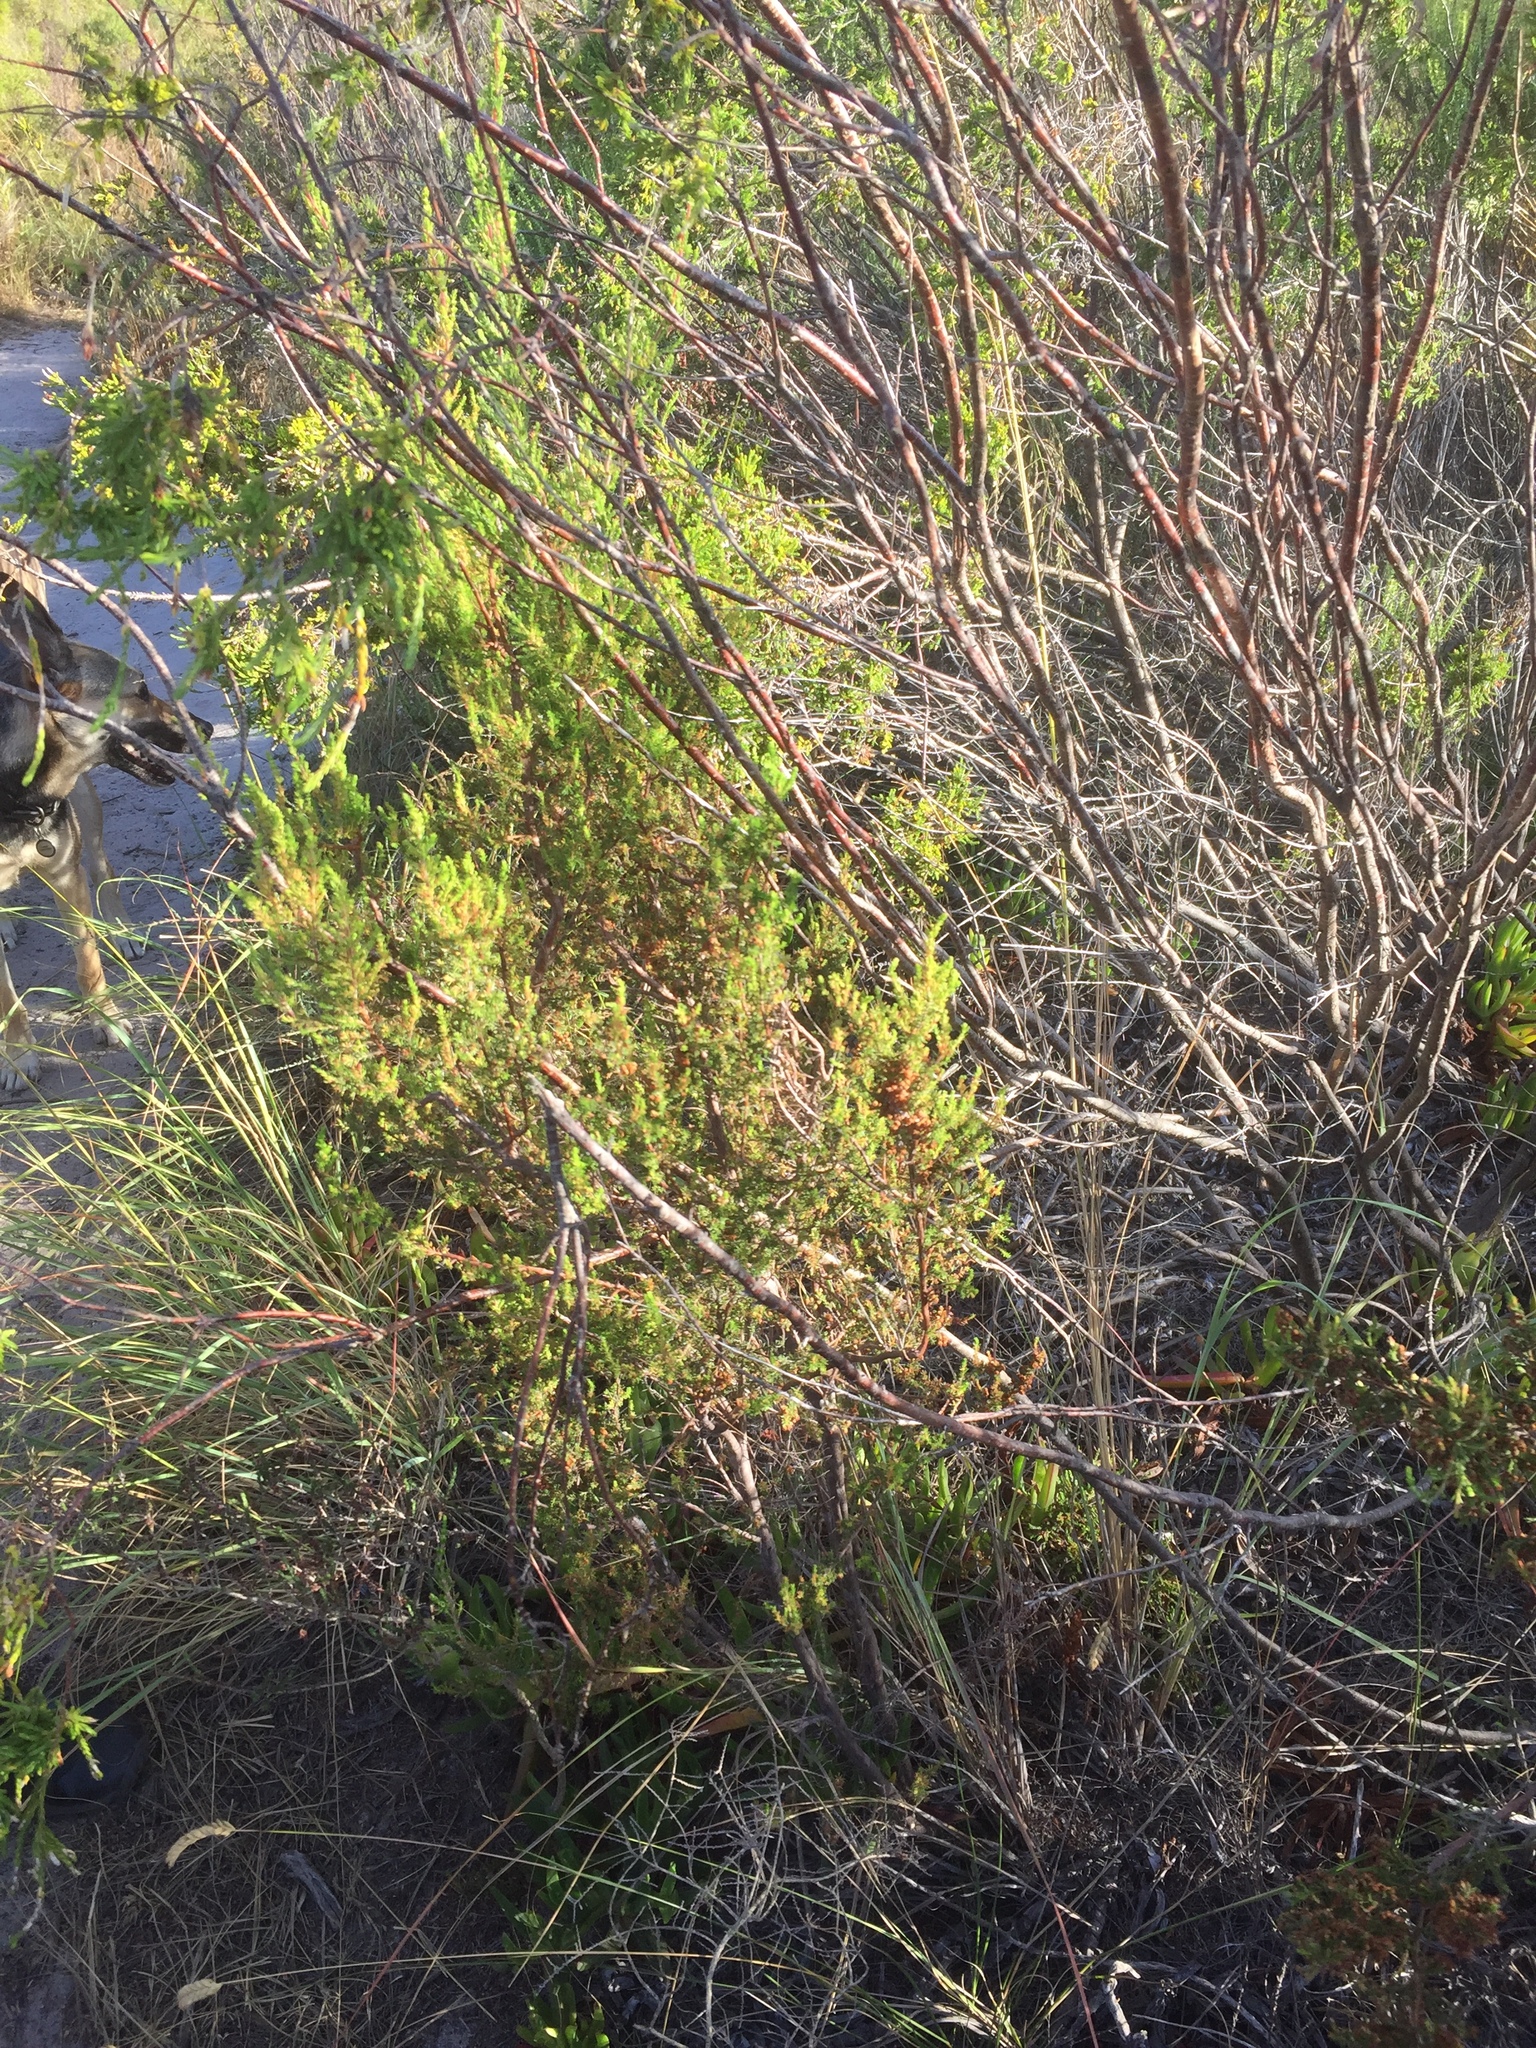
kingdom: Plantae
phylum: Tracheophyta
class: Magnoliopsida
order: Ericales
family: Ericaceae
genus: Erica
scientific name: Erica mauritanica
